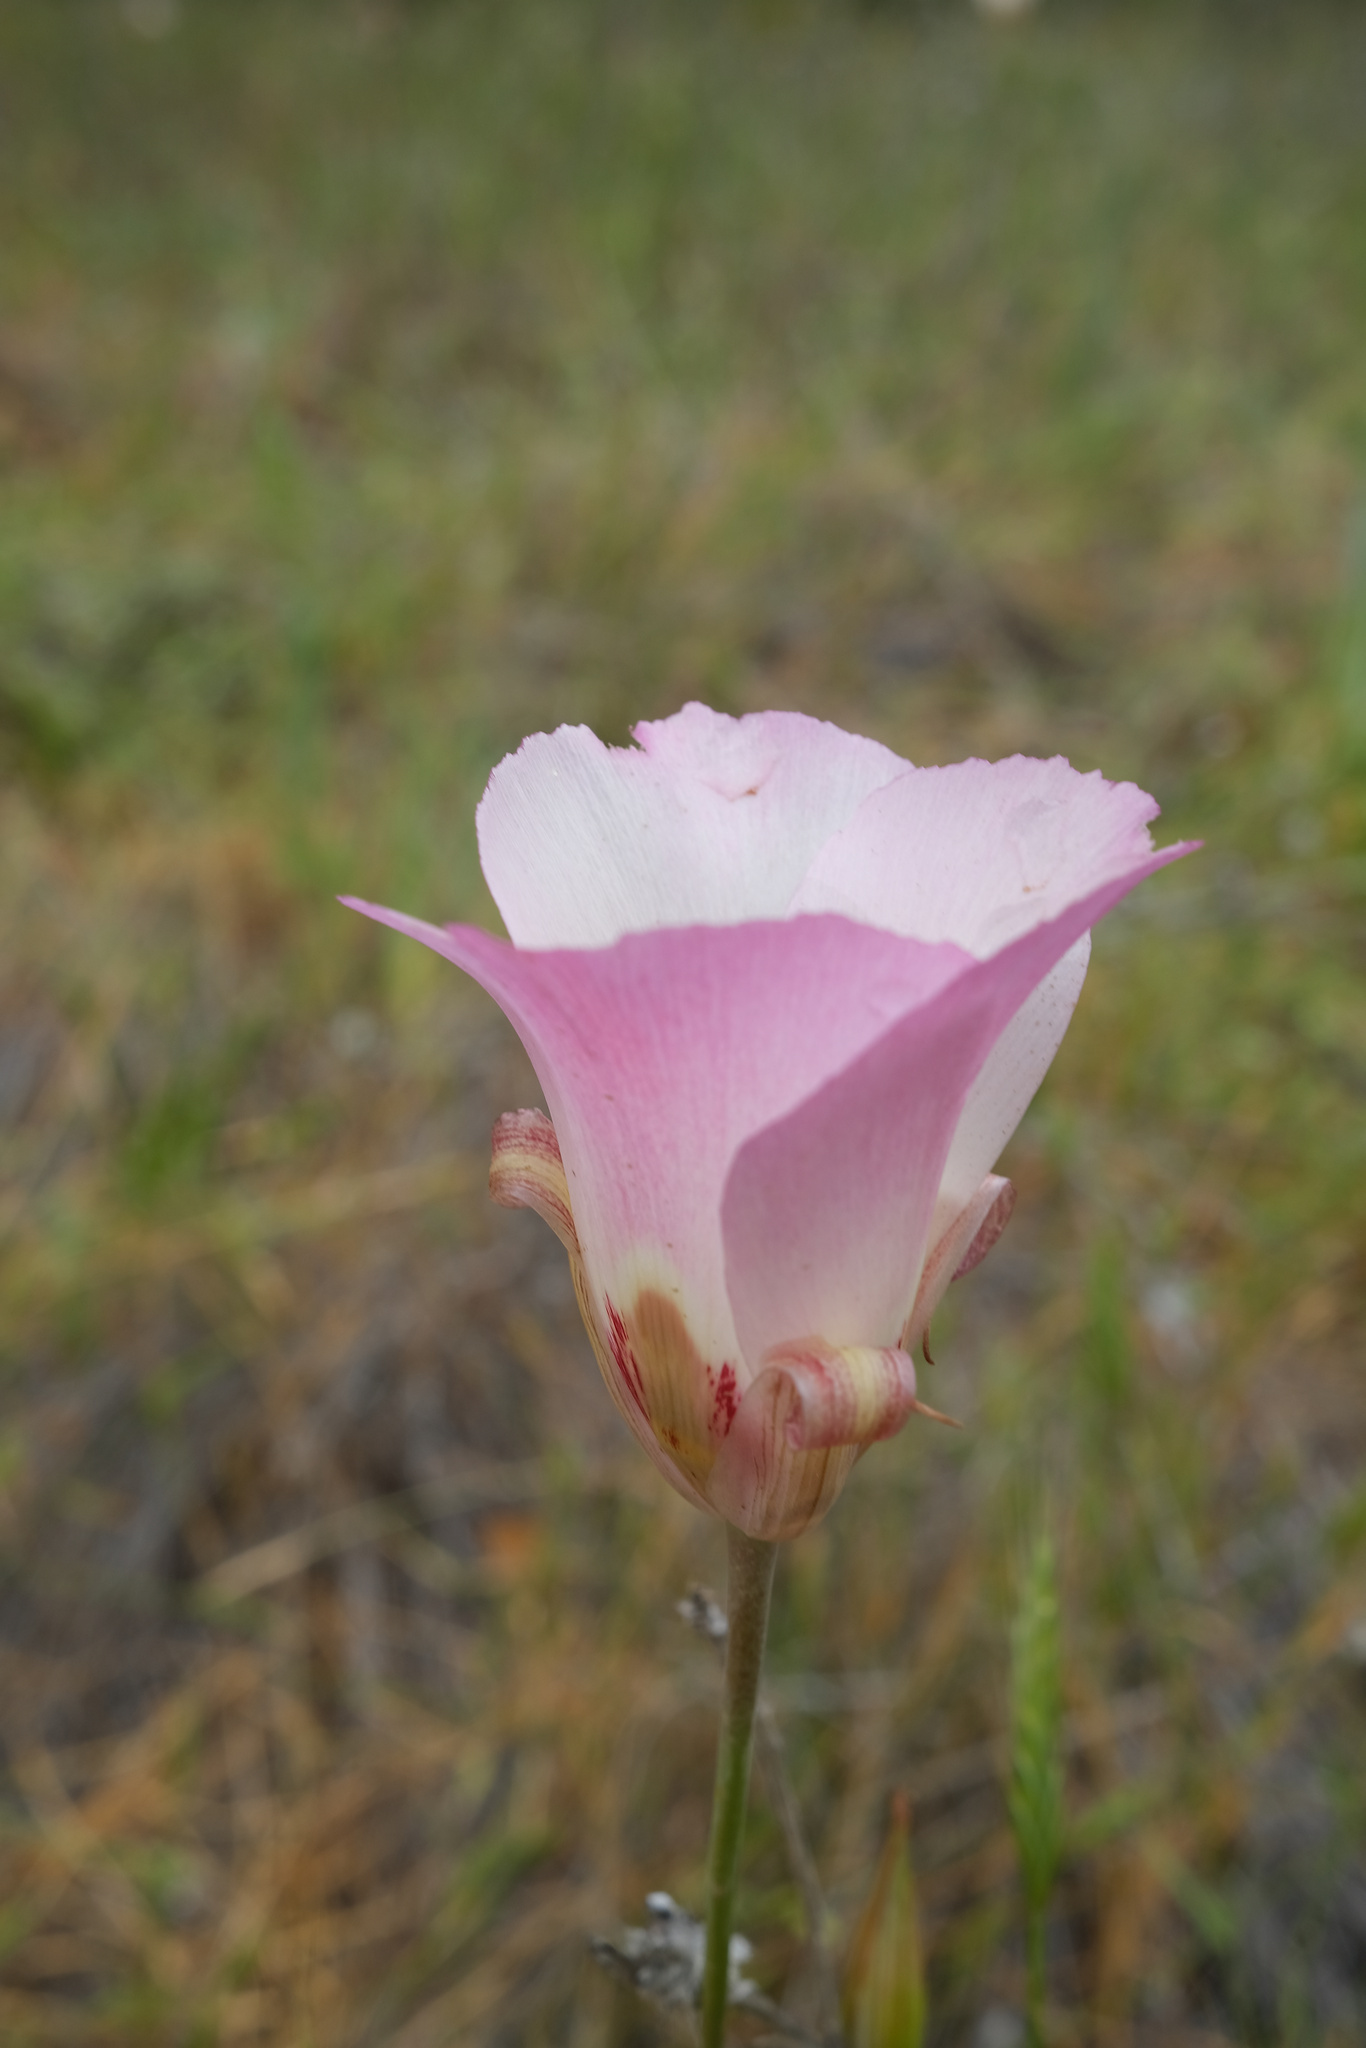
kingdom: Plantae
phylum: Tracheophyta
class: Liliopsida
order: Liliales
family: Liliaceae
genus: Calochortus
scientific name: Calochortus simulans
